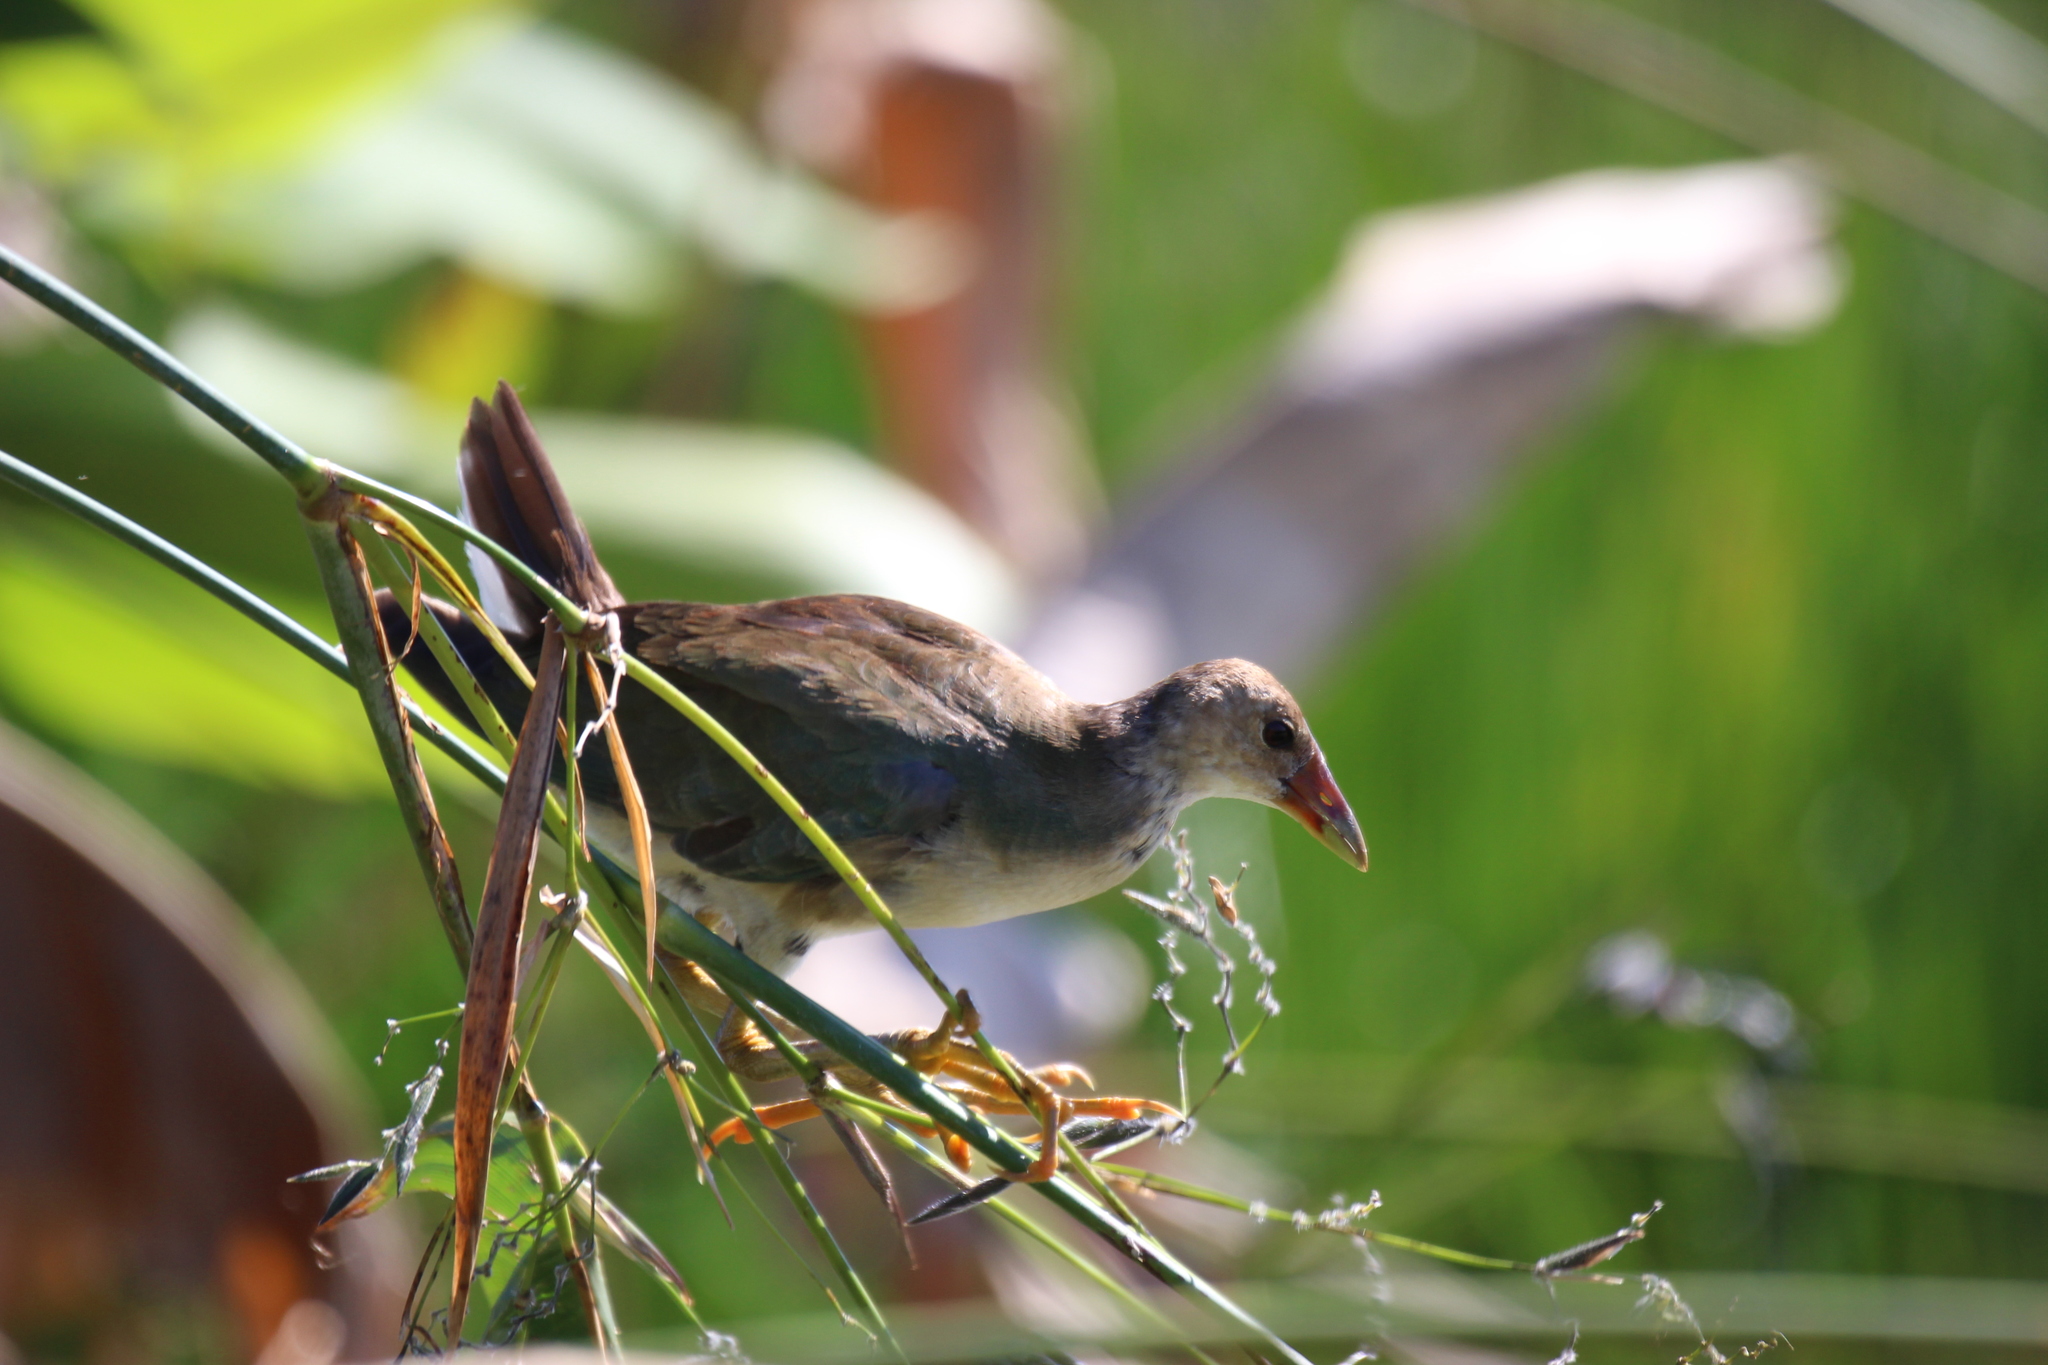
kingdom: Animalia
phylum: Chordata
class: Aves
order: Gruiformes
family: Rallidae
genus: Porphyrio
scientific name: Porphyrio martinica
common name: Purple gallinule
